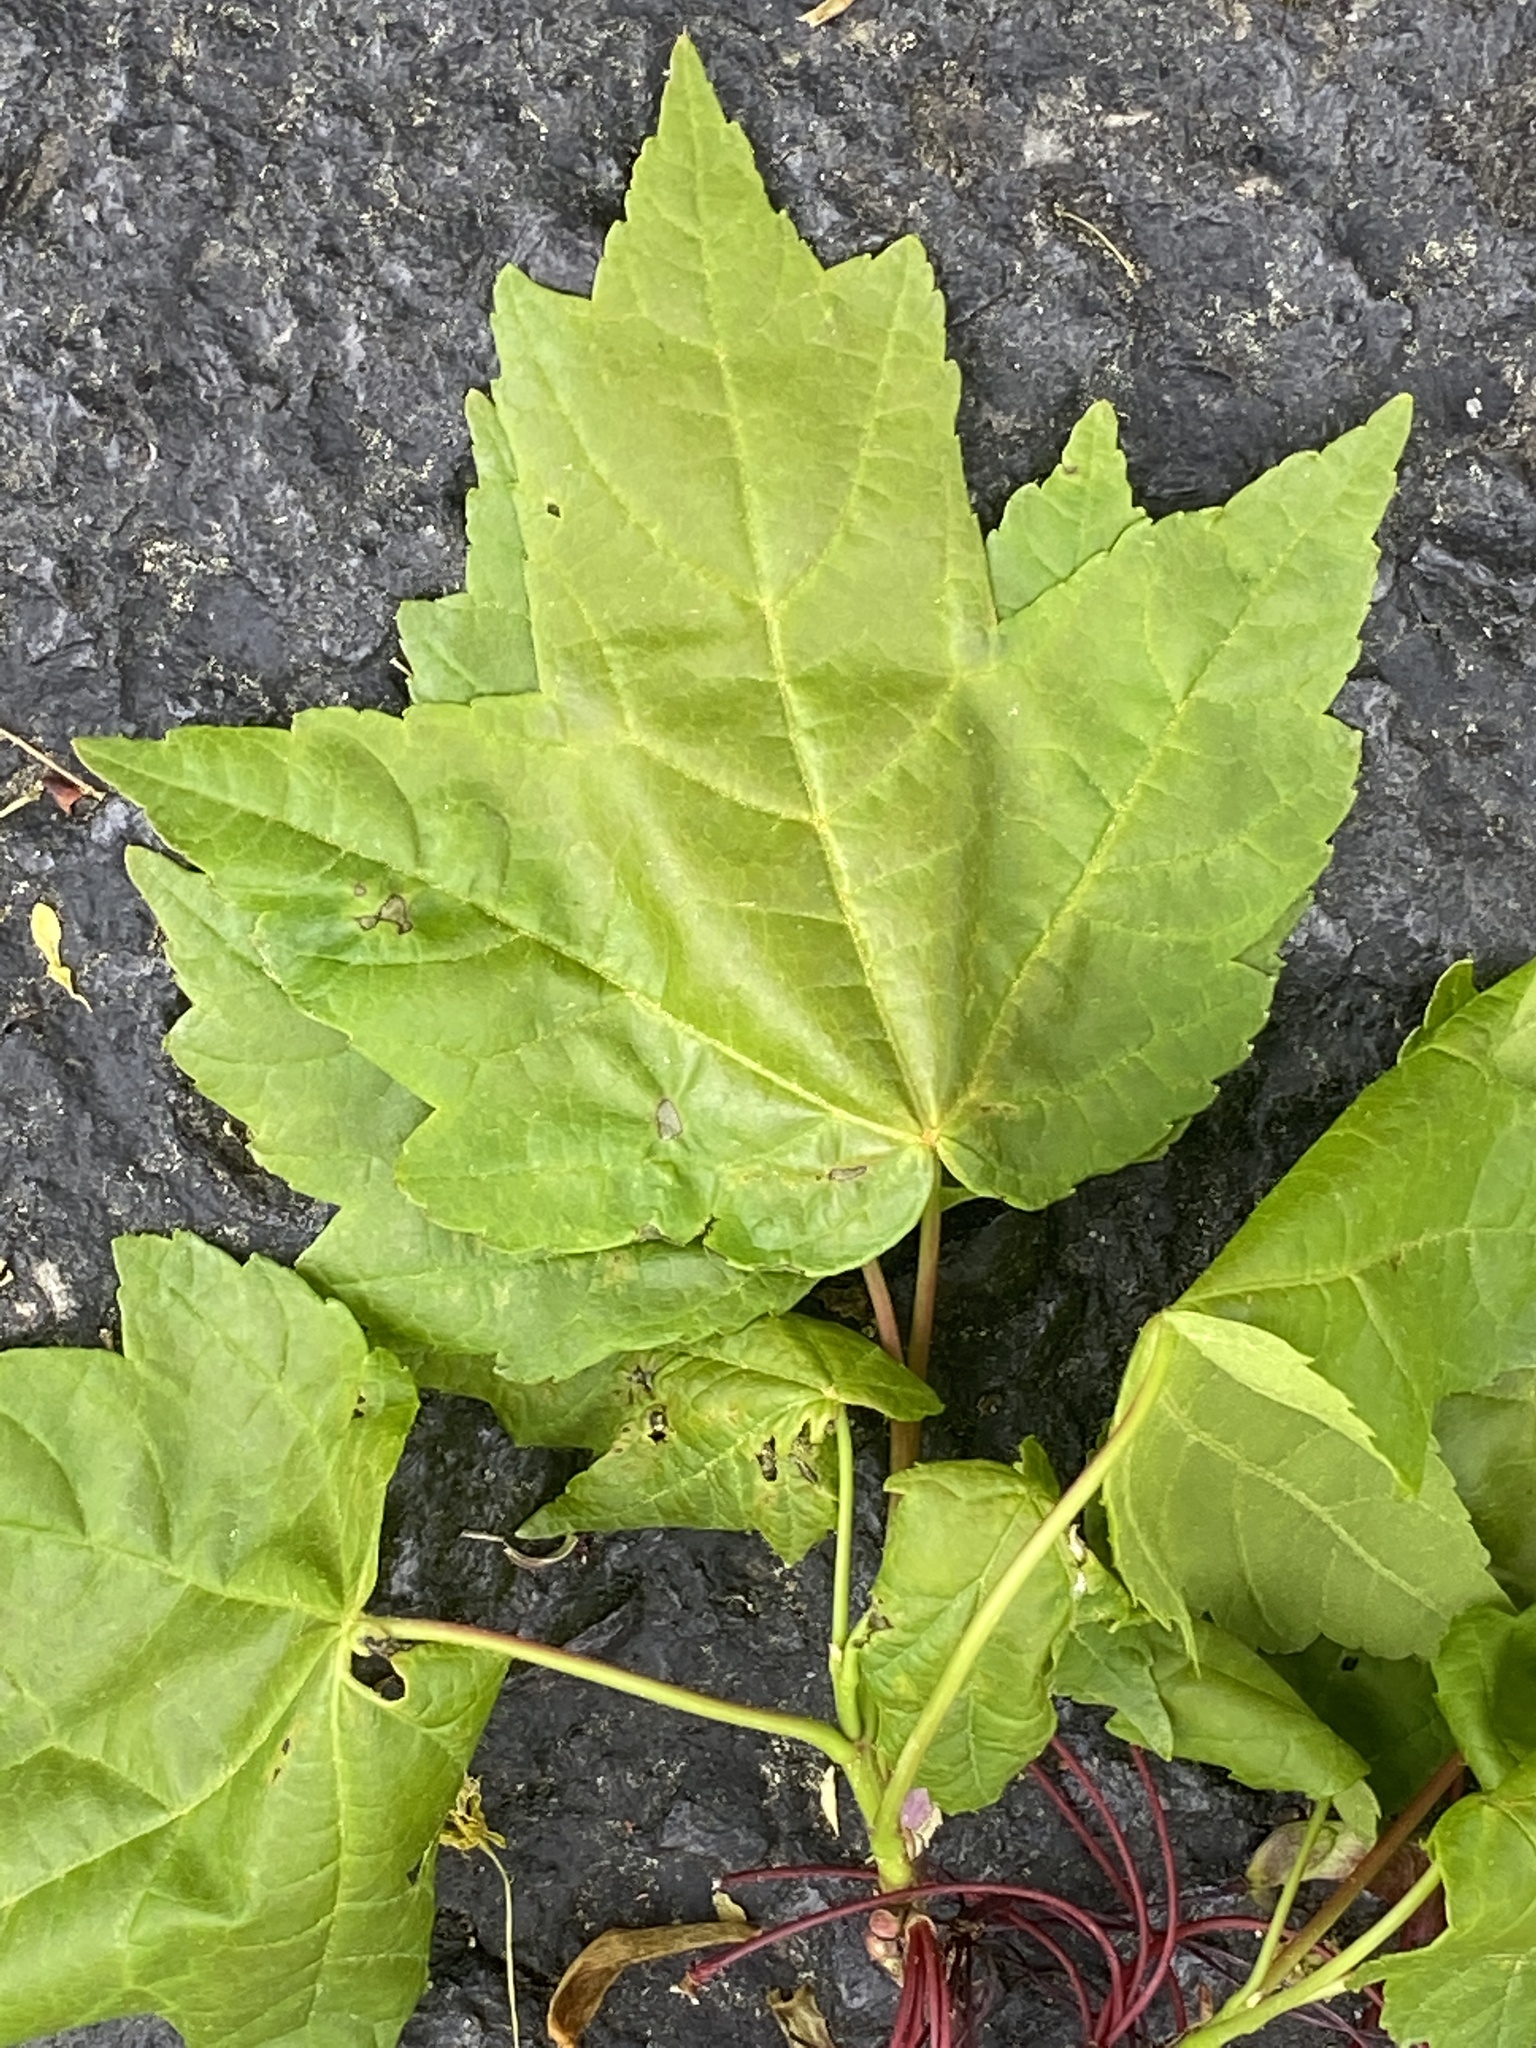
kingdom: Plantae
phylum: Tracheophyta
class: Magnoliopsida
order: Sapindales
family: Sapindaceae
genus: Acer
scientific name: Acer rubrum
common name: Red maple
